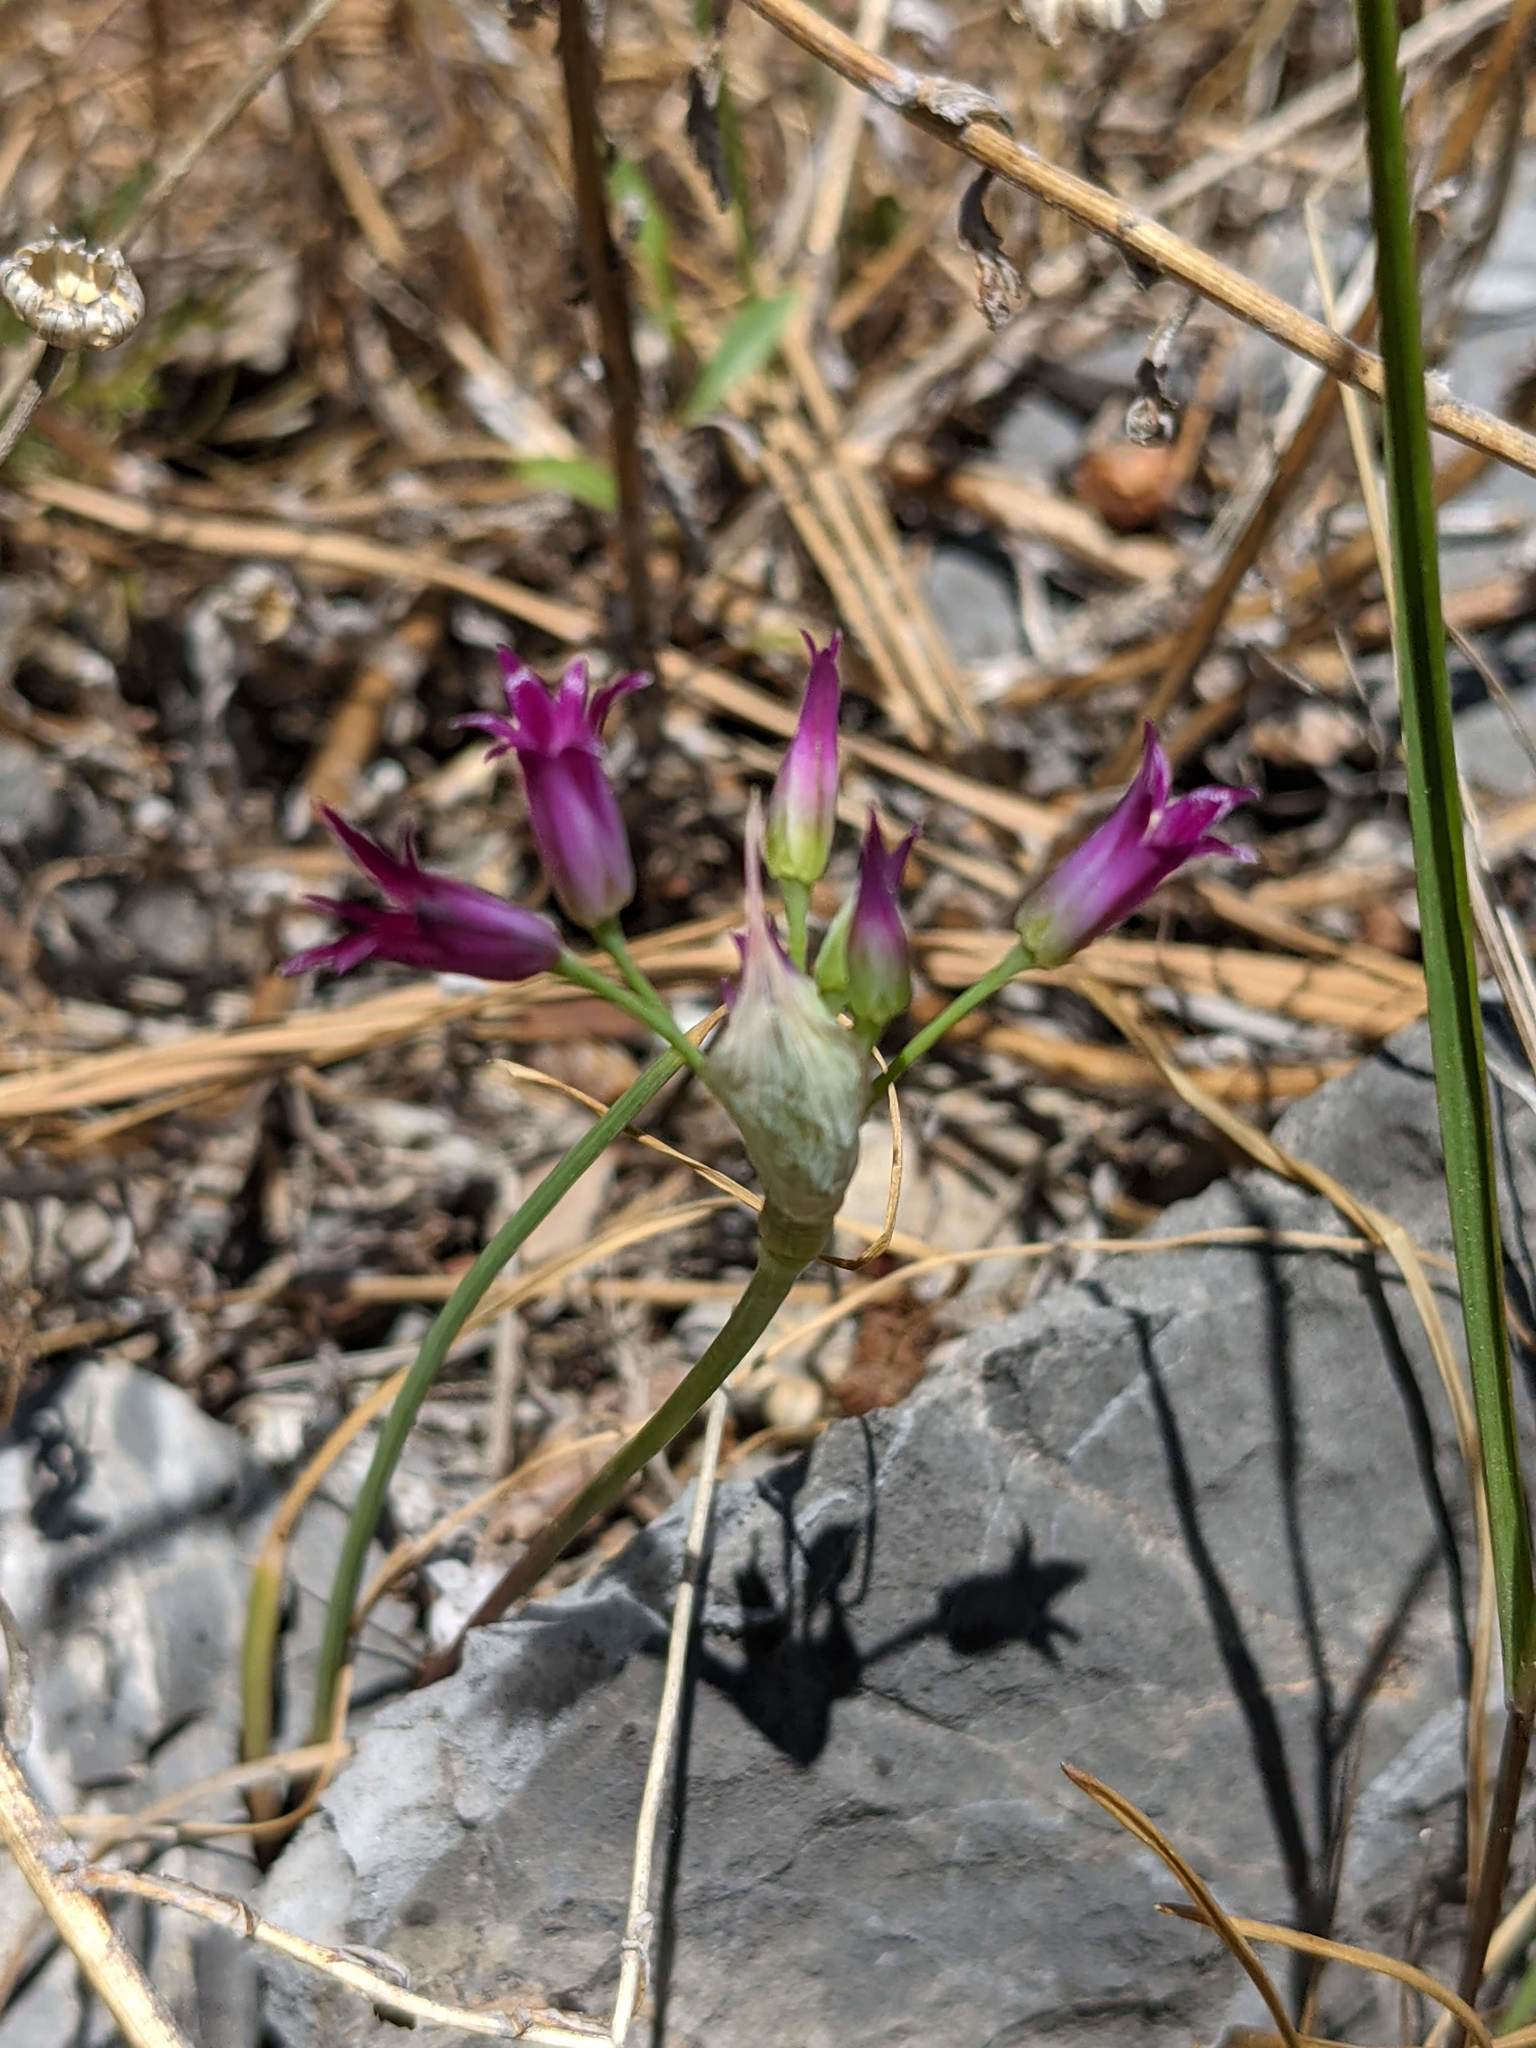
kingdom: Plantae
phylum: Tracheophyta
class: Liliopsida
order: Asparagales
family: Amaryllidaceae
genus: Allium
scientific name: Allium bolanderi
